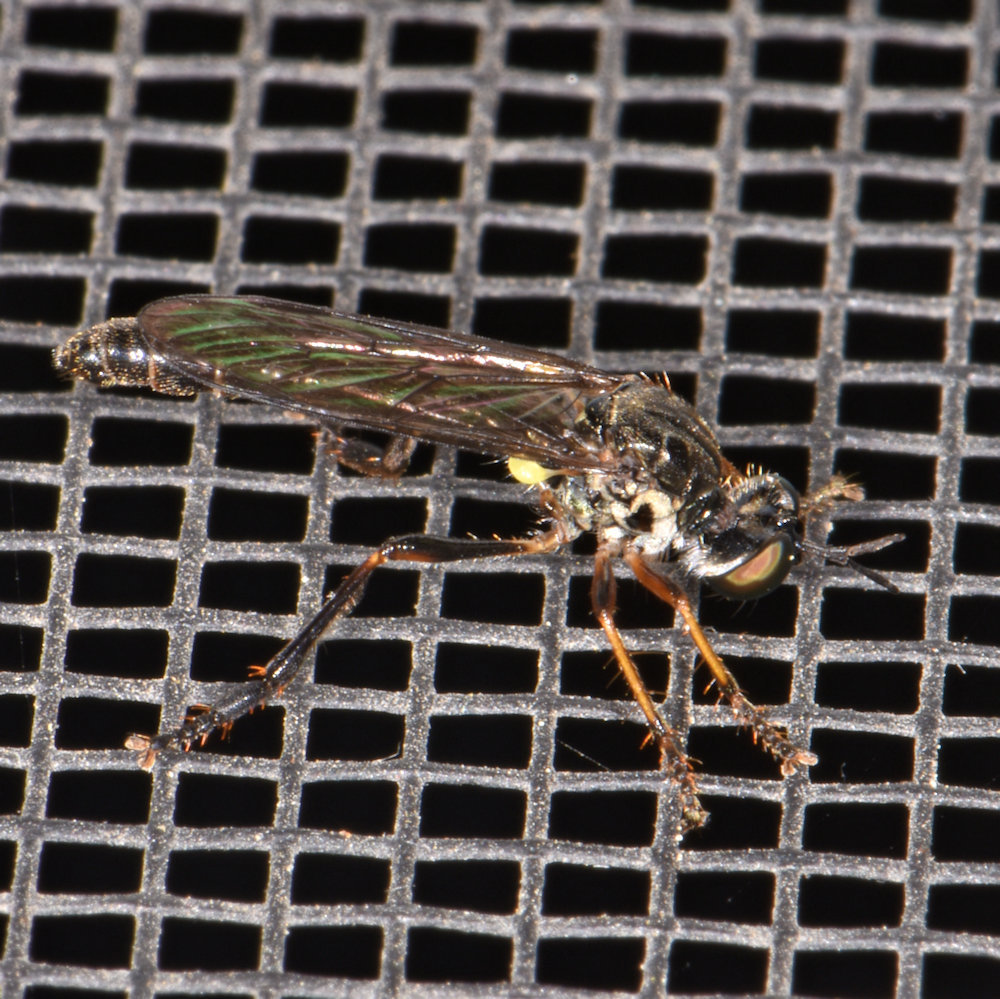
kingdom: Animalia
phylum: Arthropoda
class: Insecta
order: Diptera
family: Asilidae
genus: Dioctria
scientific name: Dioctria hyalipennis
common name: Stripe-legged robberfly
